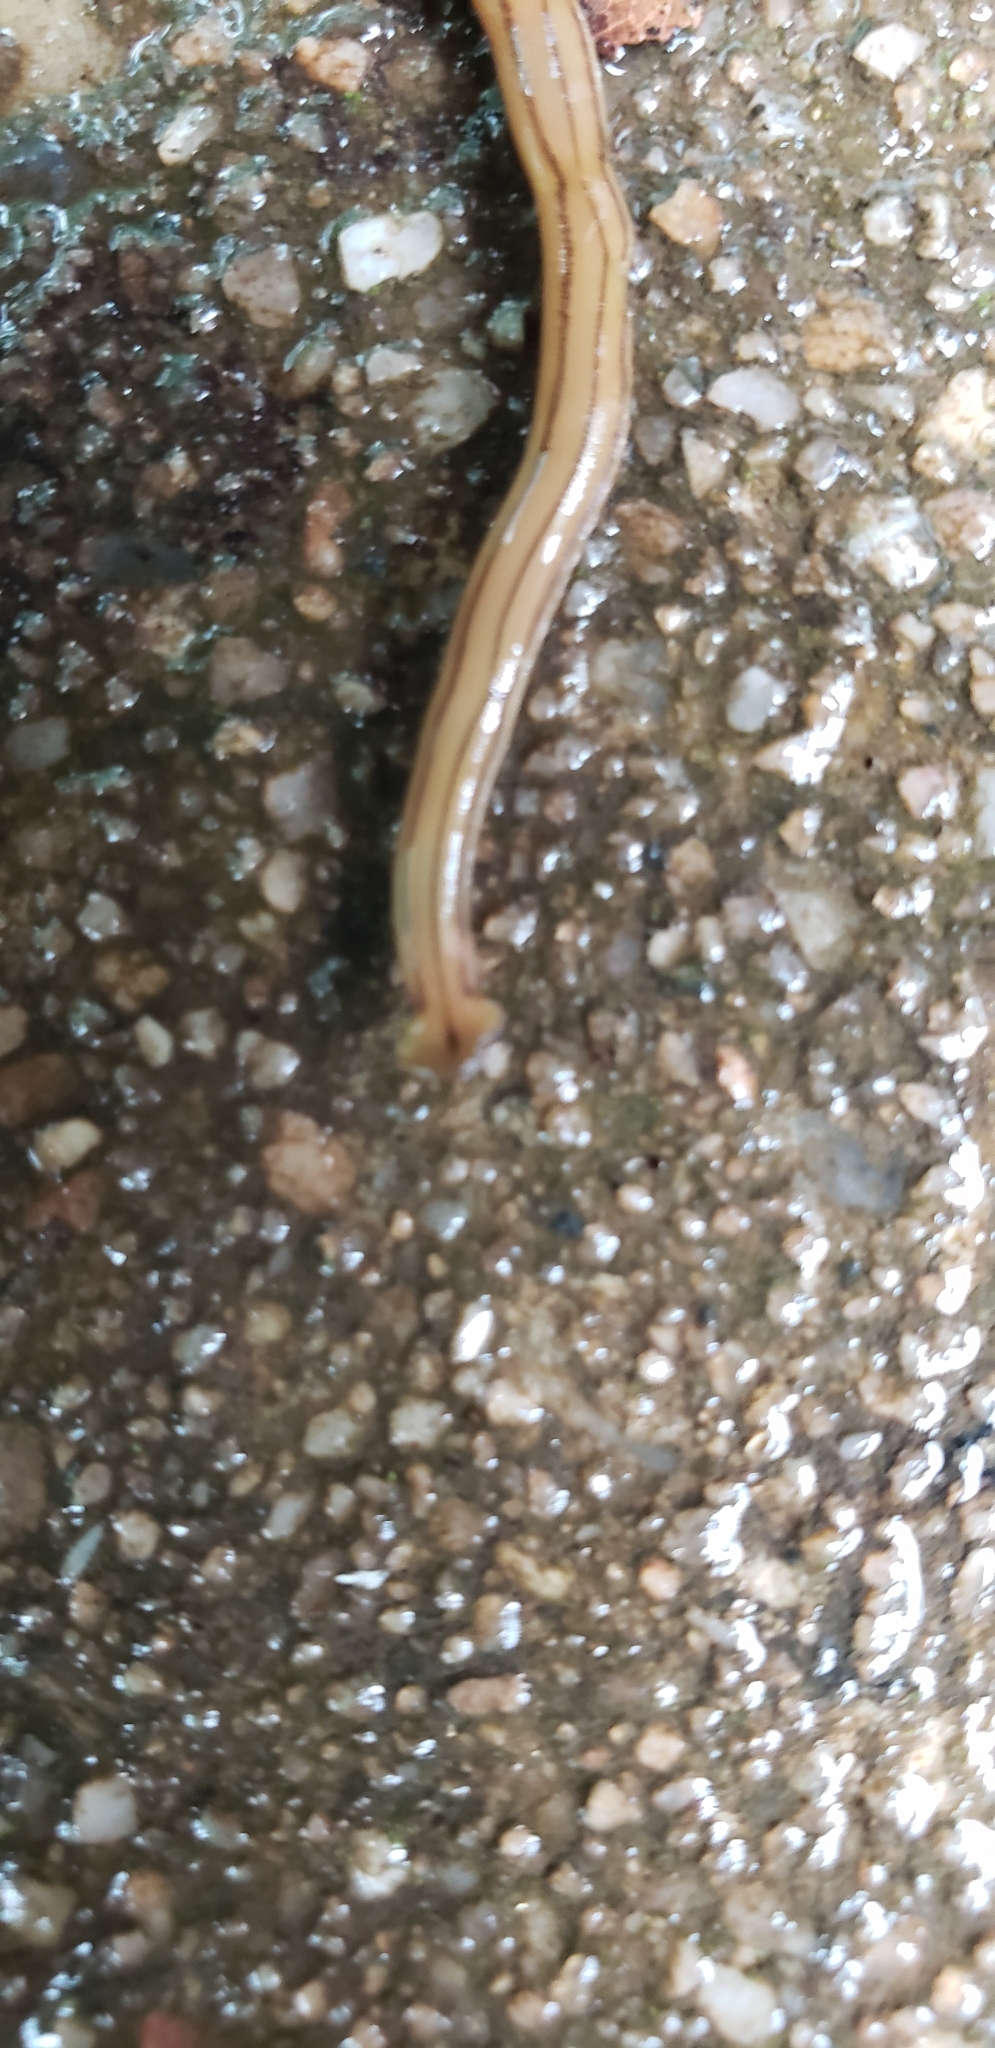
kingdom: Animalia
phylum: Platyhelminthes
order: Tricladida
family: Geoplanidae
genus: Diversibipalium
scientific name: Diversibipalium multilineatum
